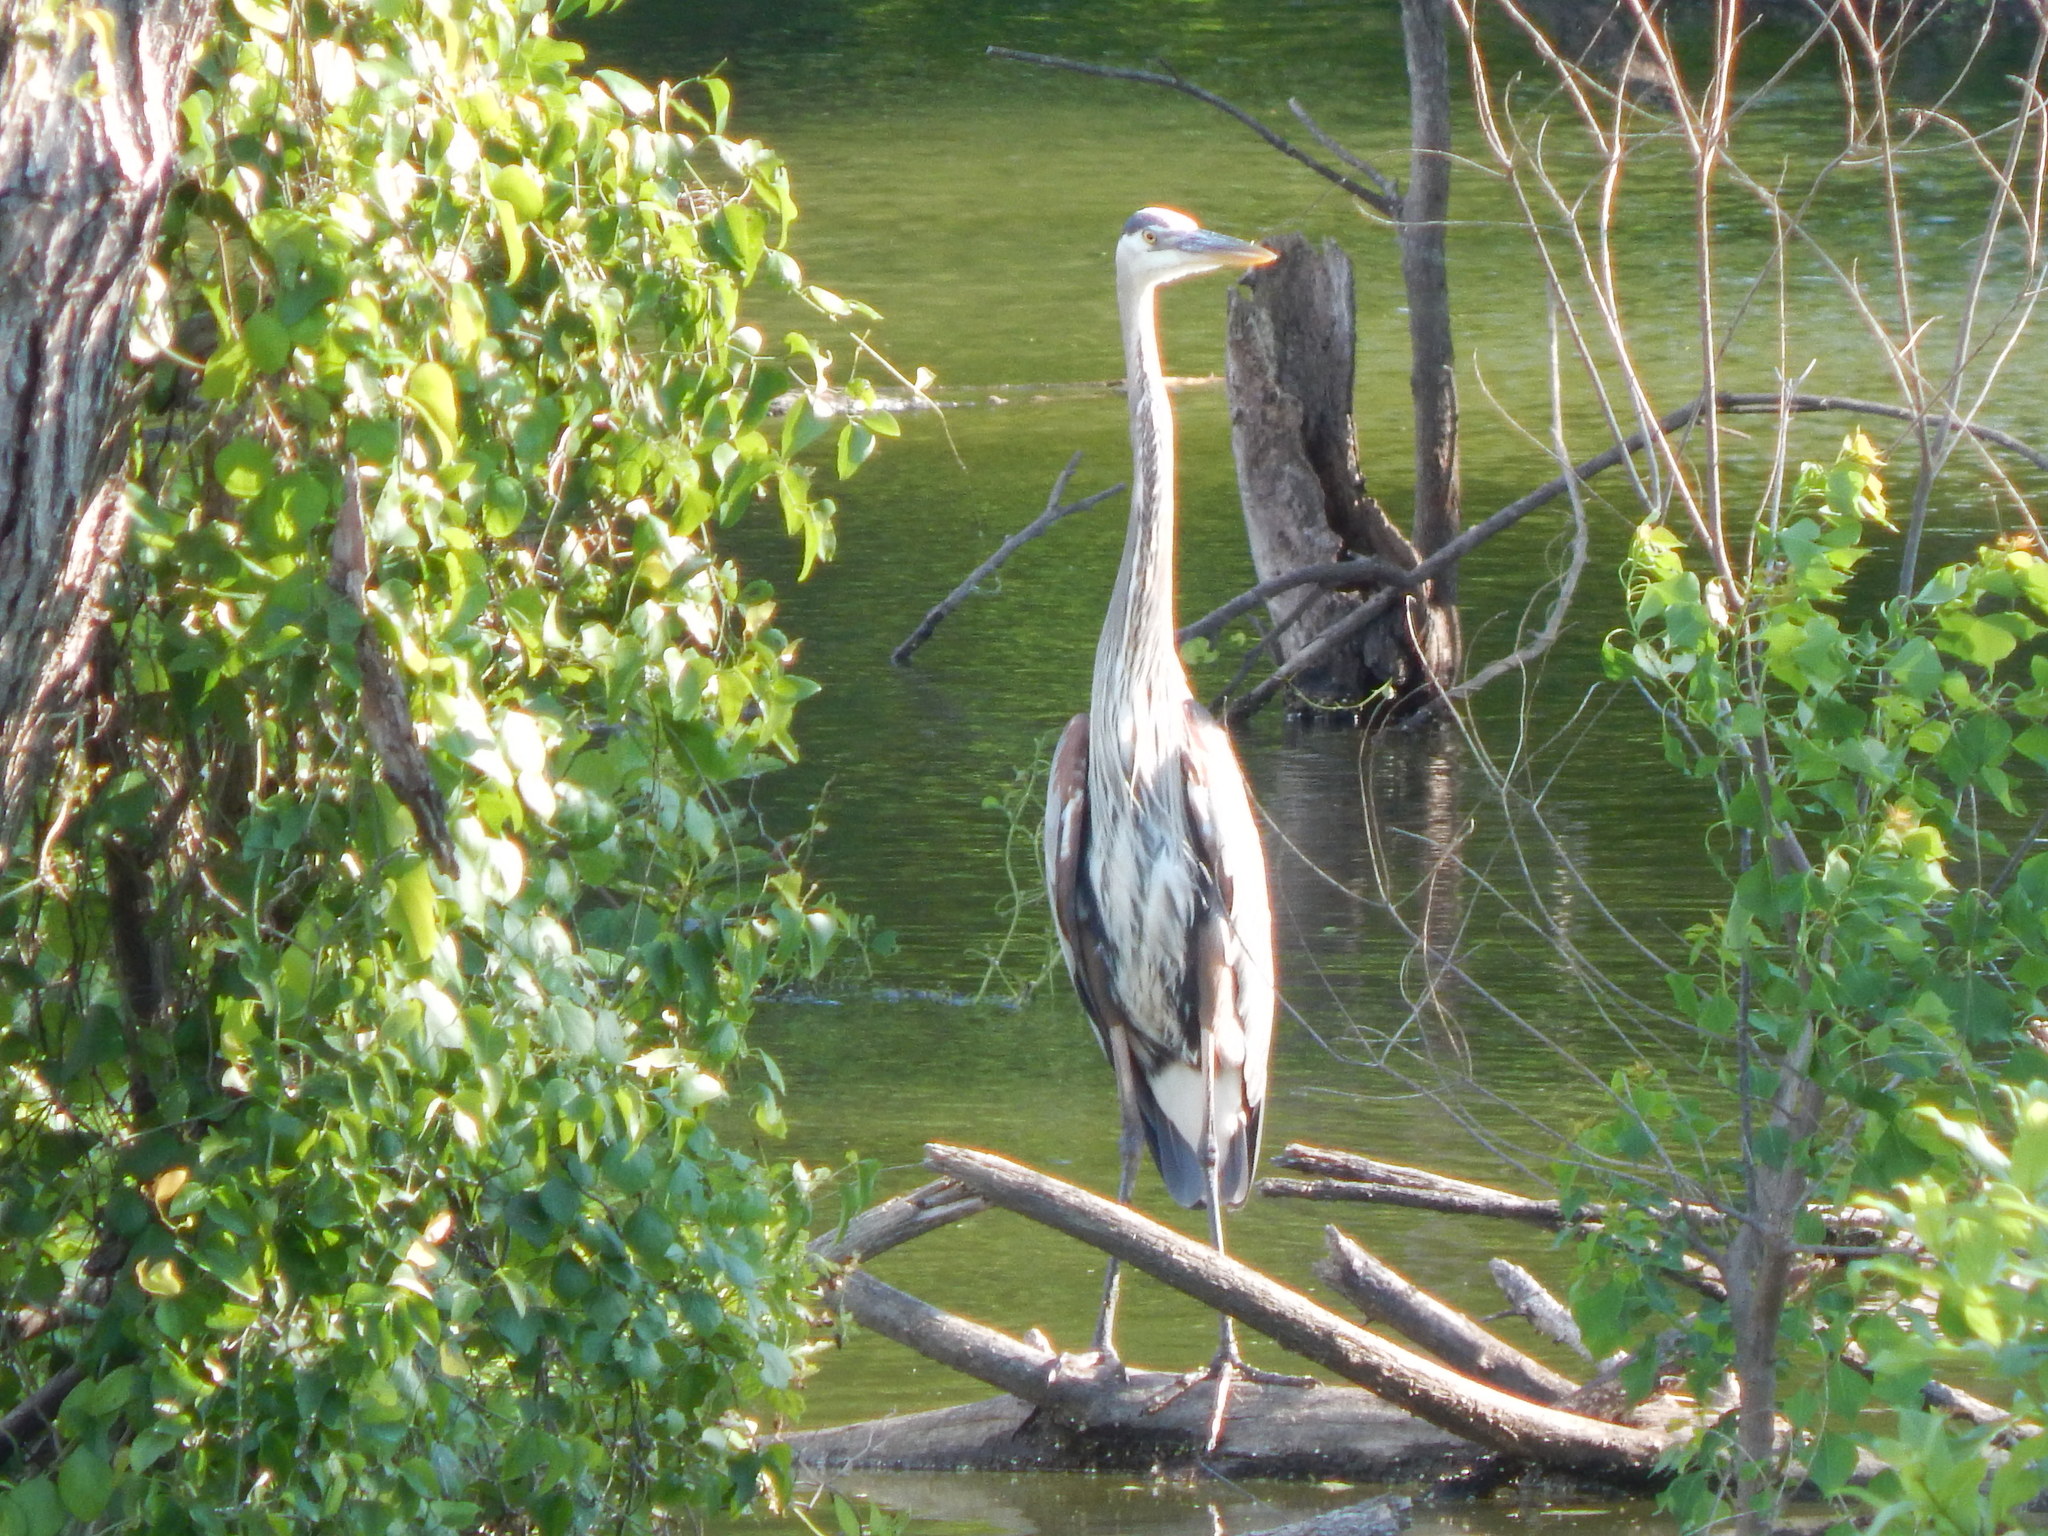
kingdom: Animalia
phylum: Chordata
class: Aves
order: Pelecaniformes
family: Ardeidae
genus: Ardea
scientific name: Ardea herodias
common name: Great blue heron
